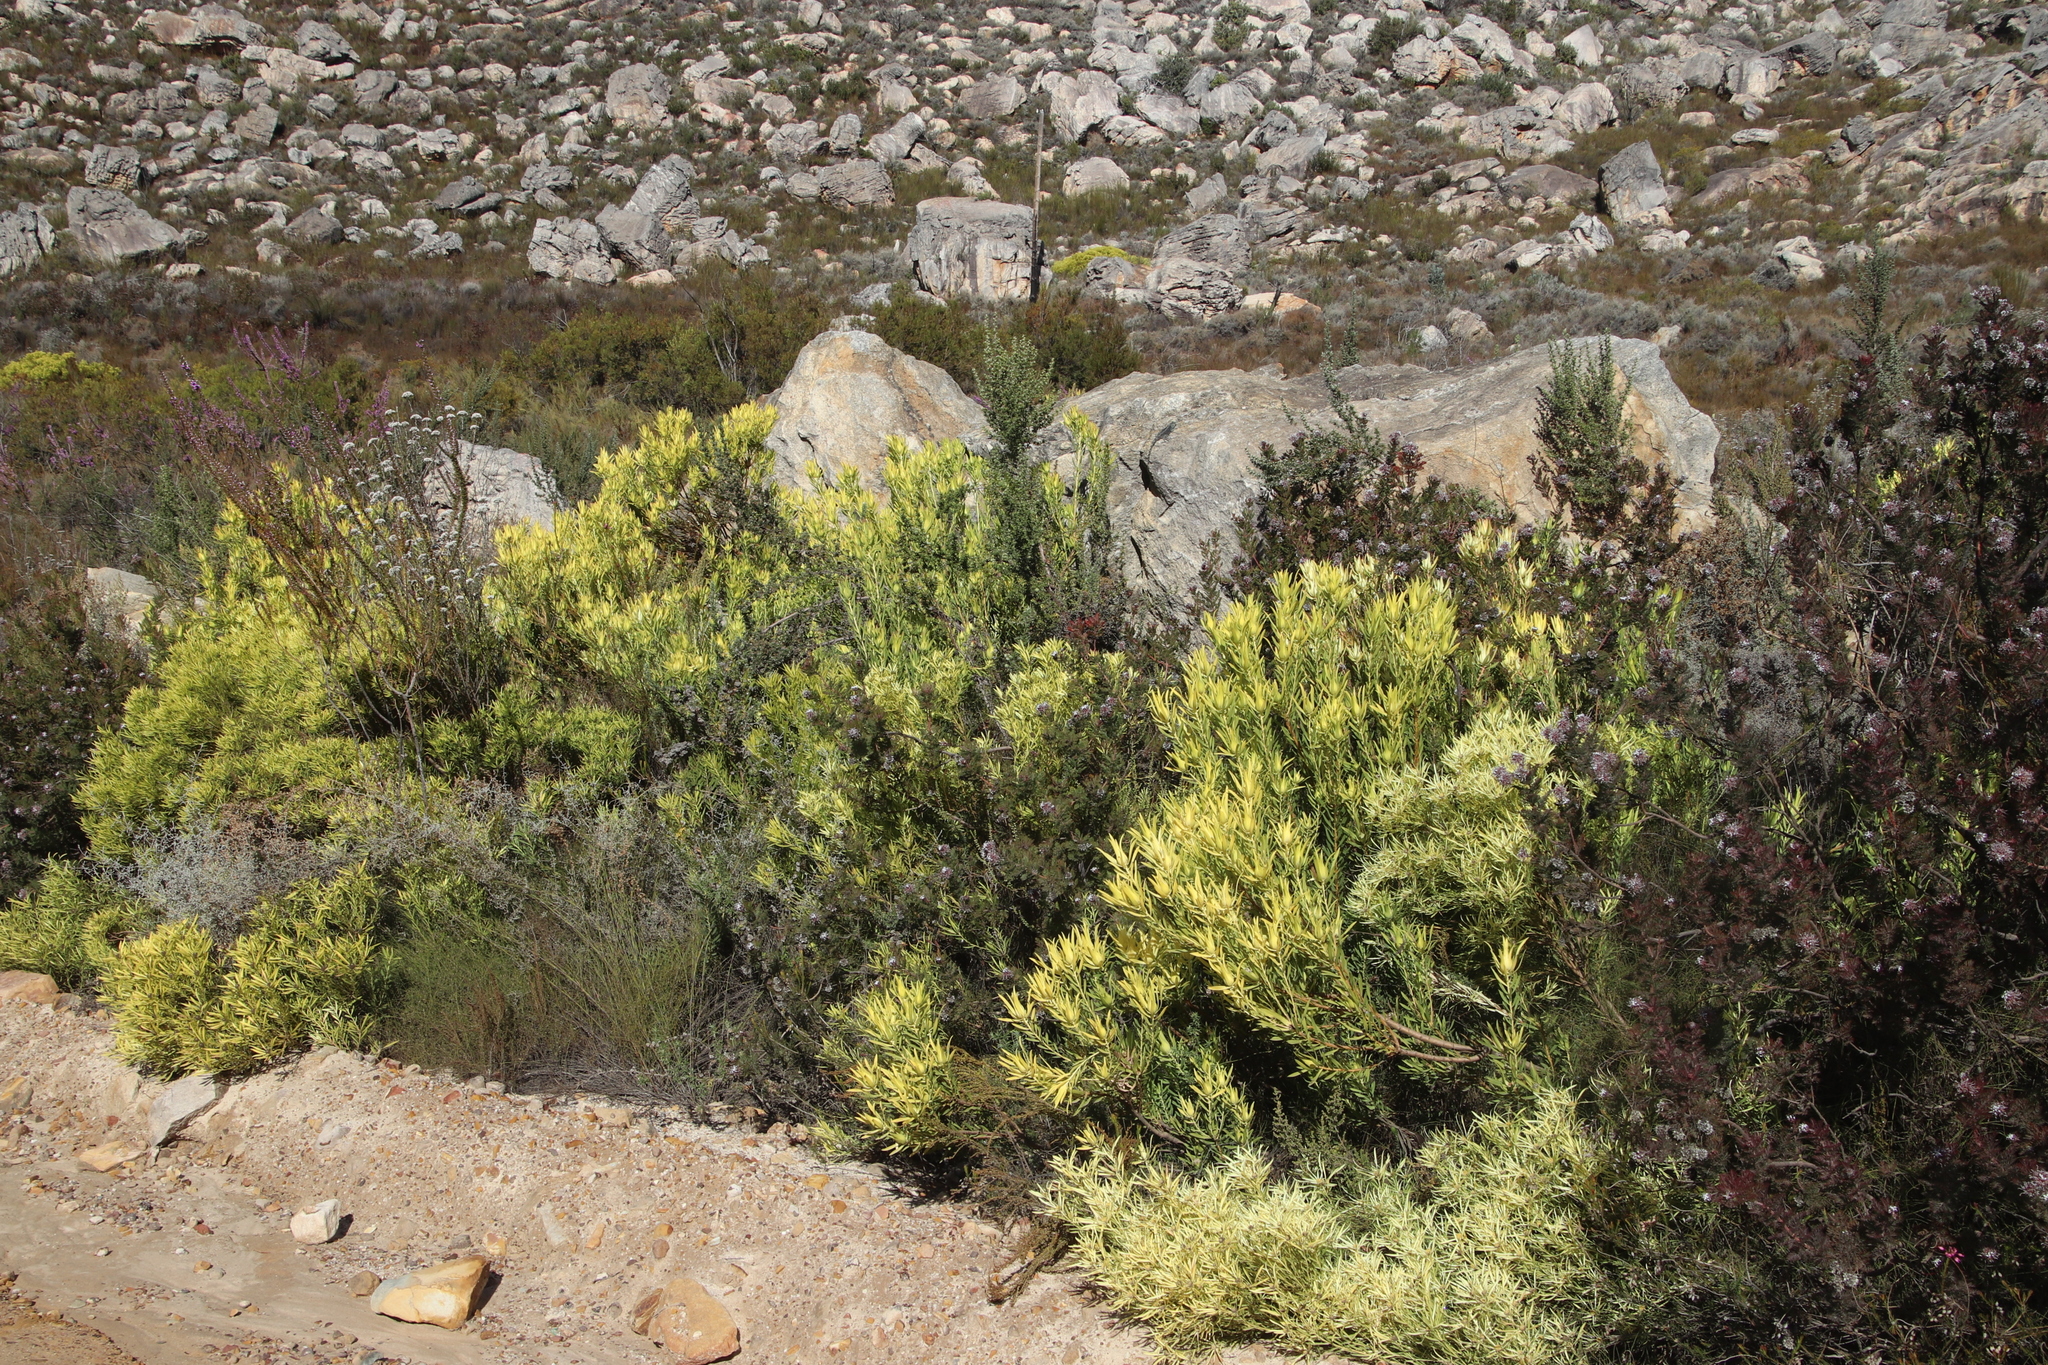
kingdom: Plantae
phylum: Tracheophyta
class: Magnoliopsida
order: Proteales
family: Proteaceae
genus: Leucadendron
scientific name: Leucadendron salignum
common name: Common sunshine conebush
